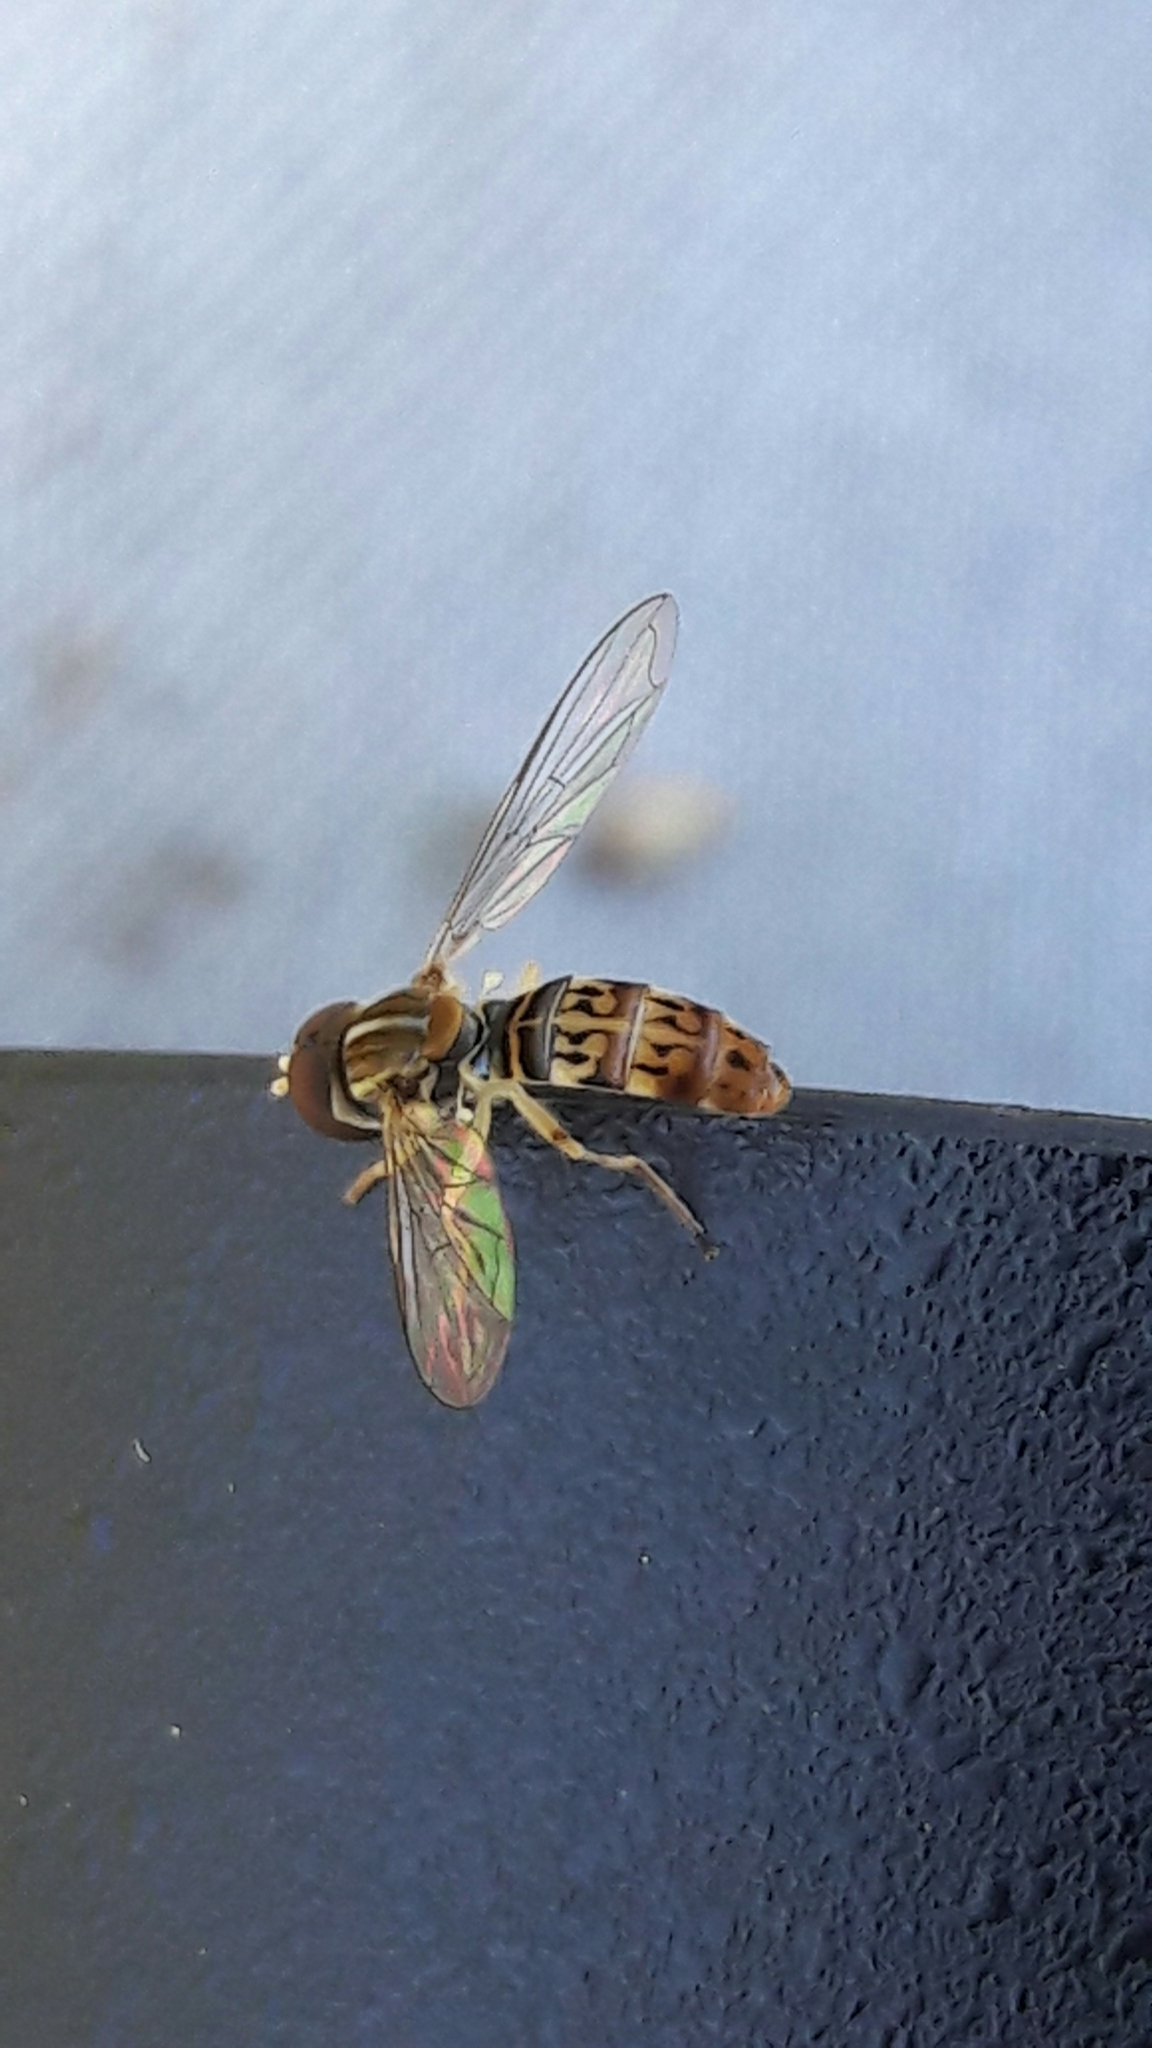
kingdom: Animalia
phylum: Arthropoda
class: Insecta
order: Diptera
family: Syrphidae
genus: Toxomerus
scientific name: Toxomerus
